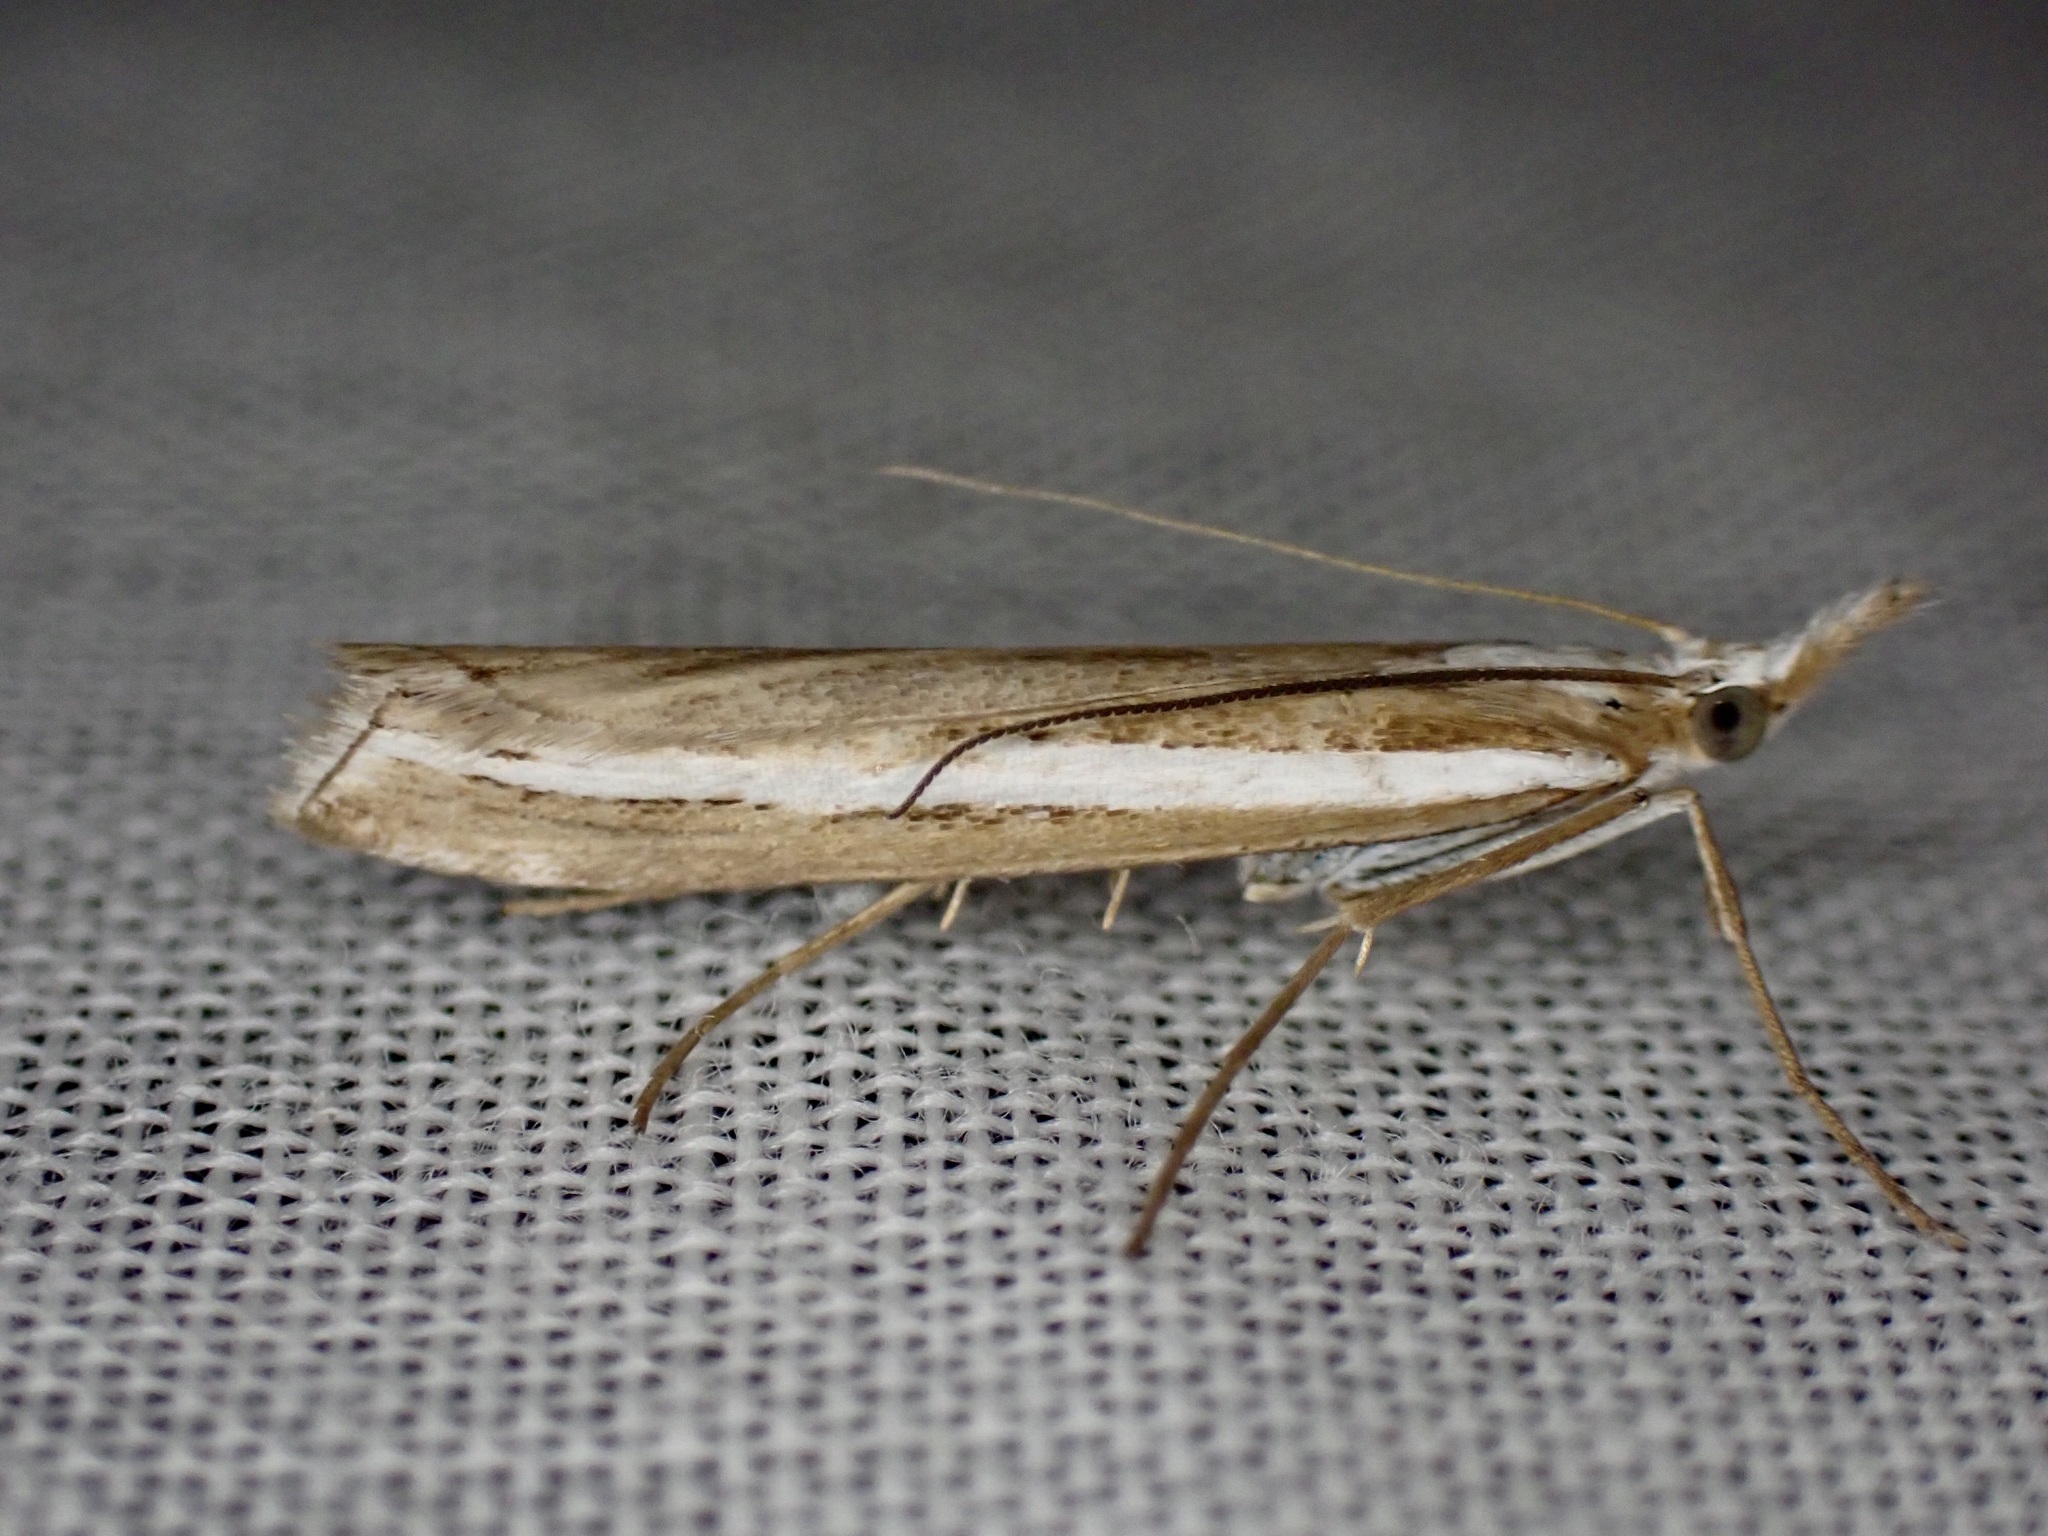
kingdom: Animalia
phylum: Arthropoda
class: Insecta
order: Lepidoptera
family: Crambidae
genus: Orocrambus
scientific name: Orocrambus vittellus
